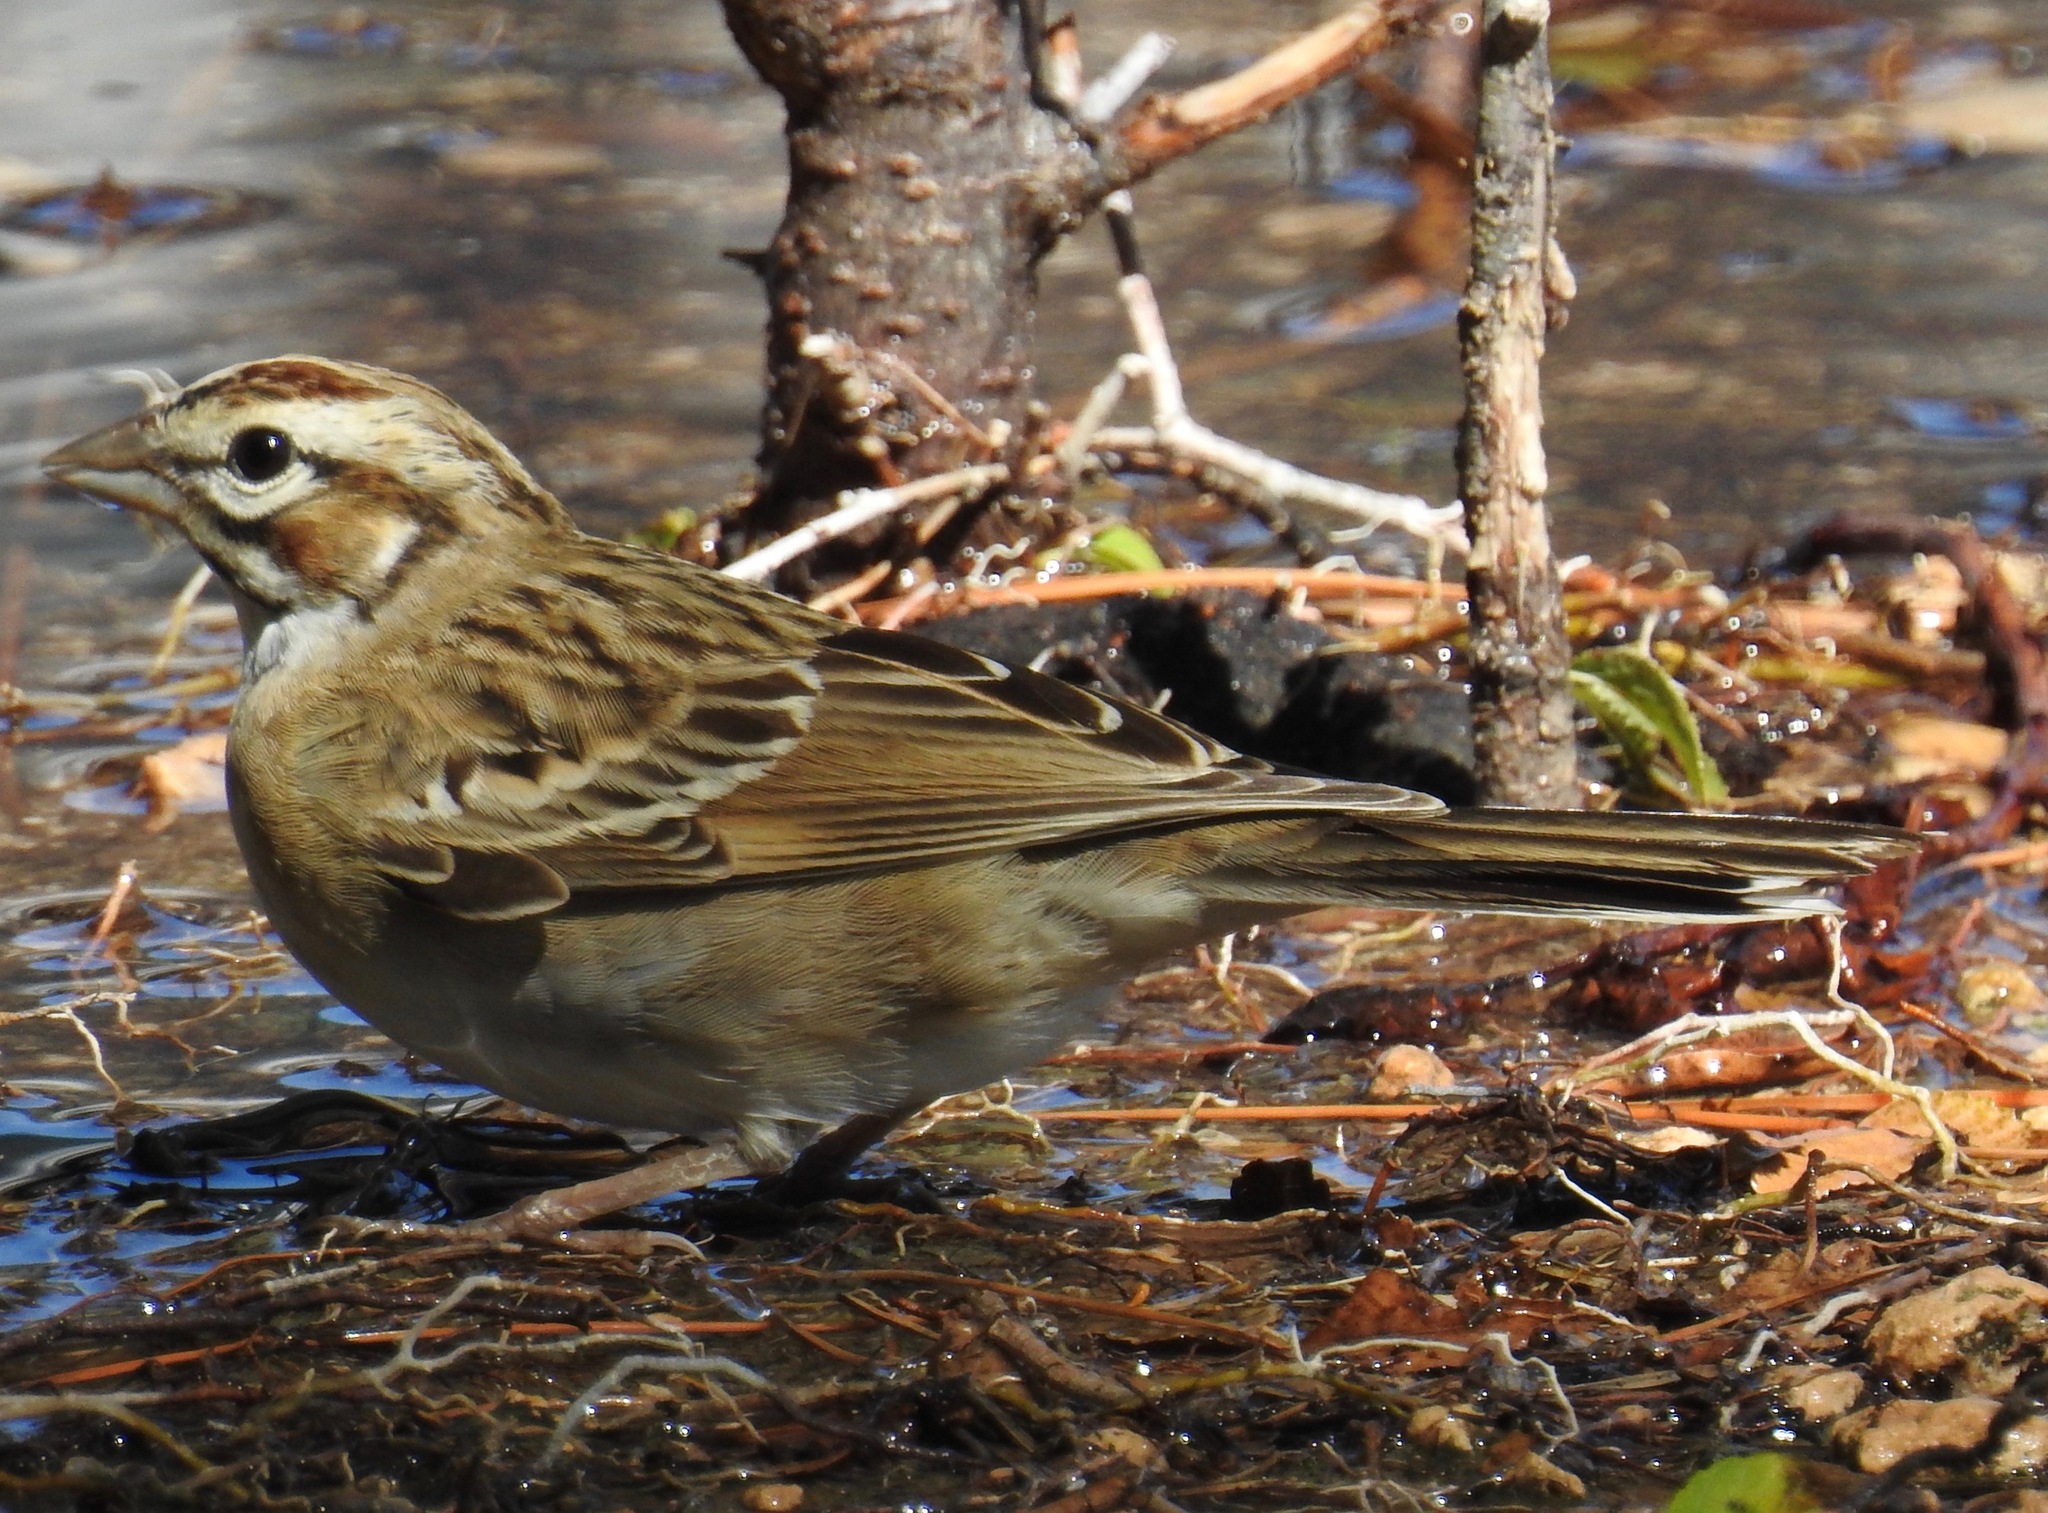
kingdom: Animalia
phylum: Chordata
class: Aves
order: Passeriformes
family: Passerellidae
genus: Chondestes
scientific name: Chondestes grammacus
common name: Lark sparrow
